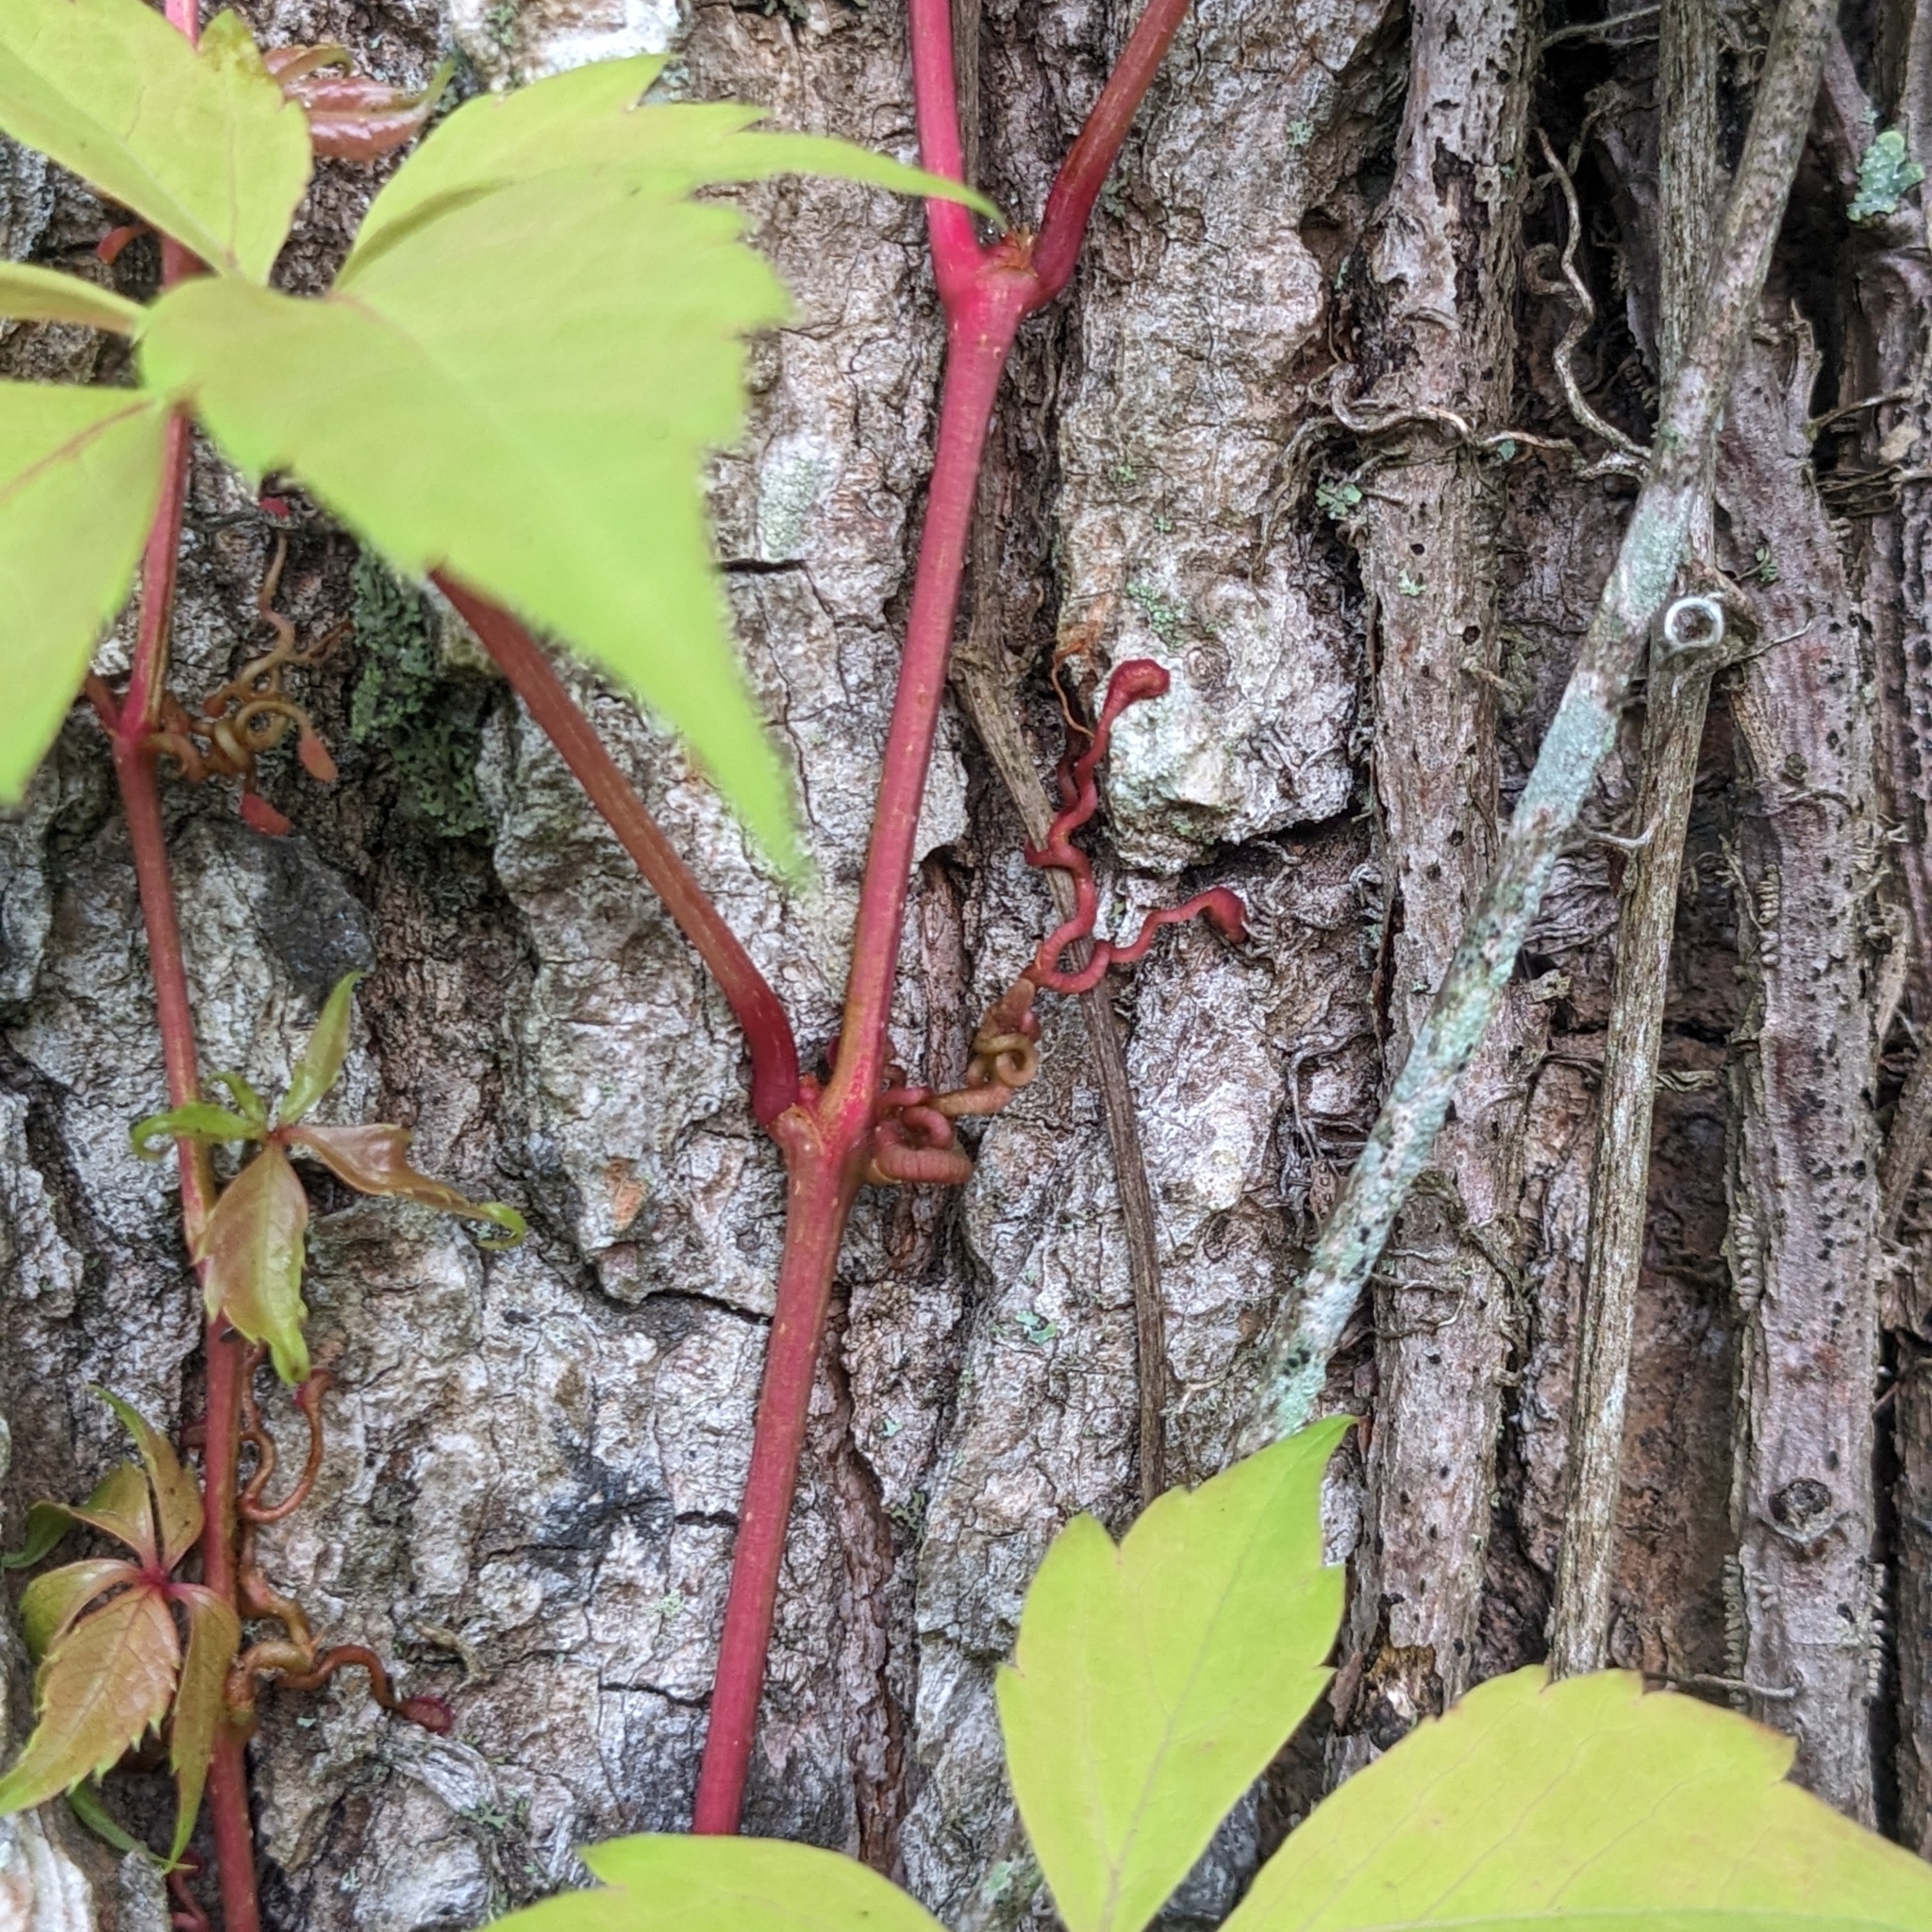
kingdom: Plantae
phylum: Tracheophyta
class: Magnoliopsida
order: Vitales
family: Vitaceae
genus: Parthenocissus
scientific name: Parthenocissus quinquefolia
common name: Virginia-creeper
